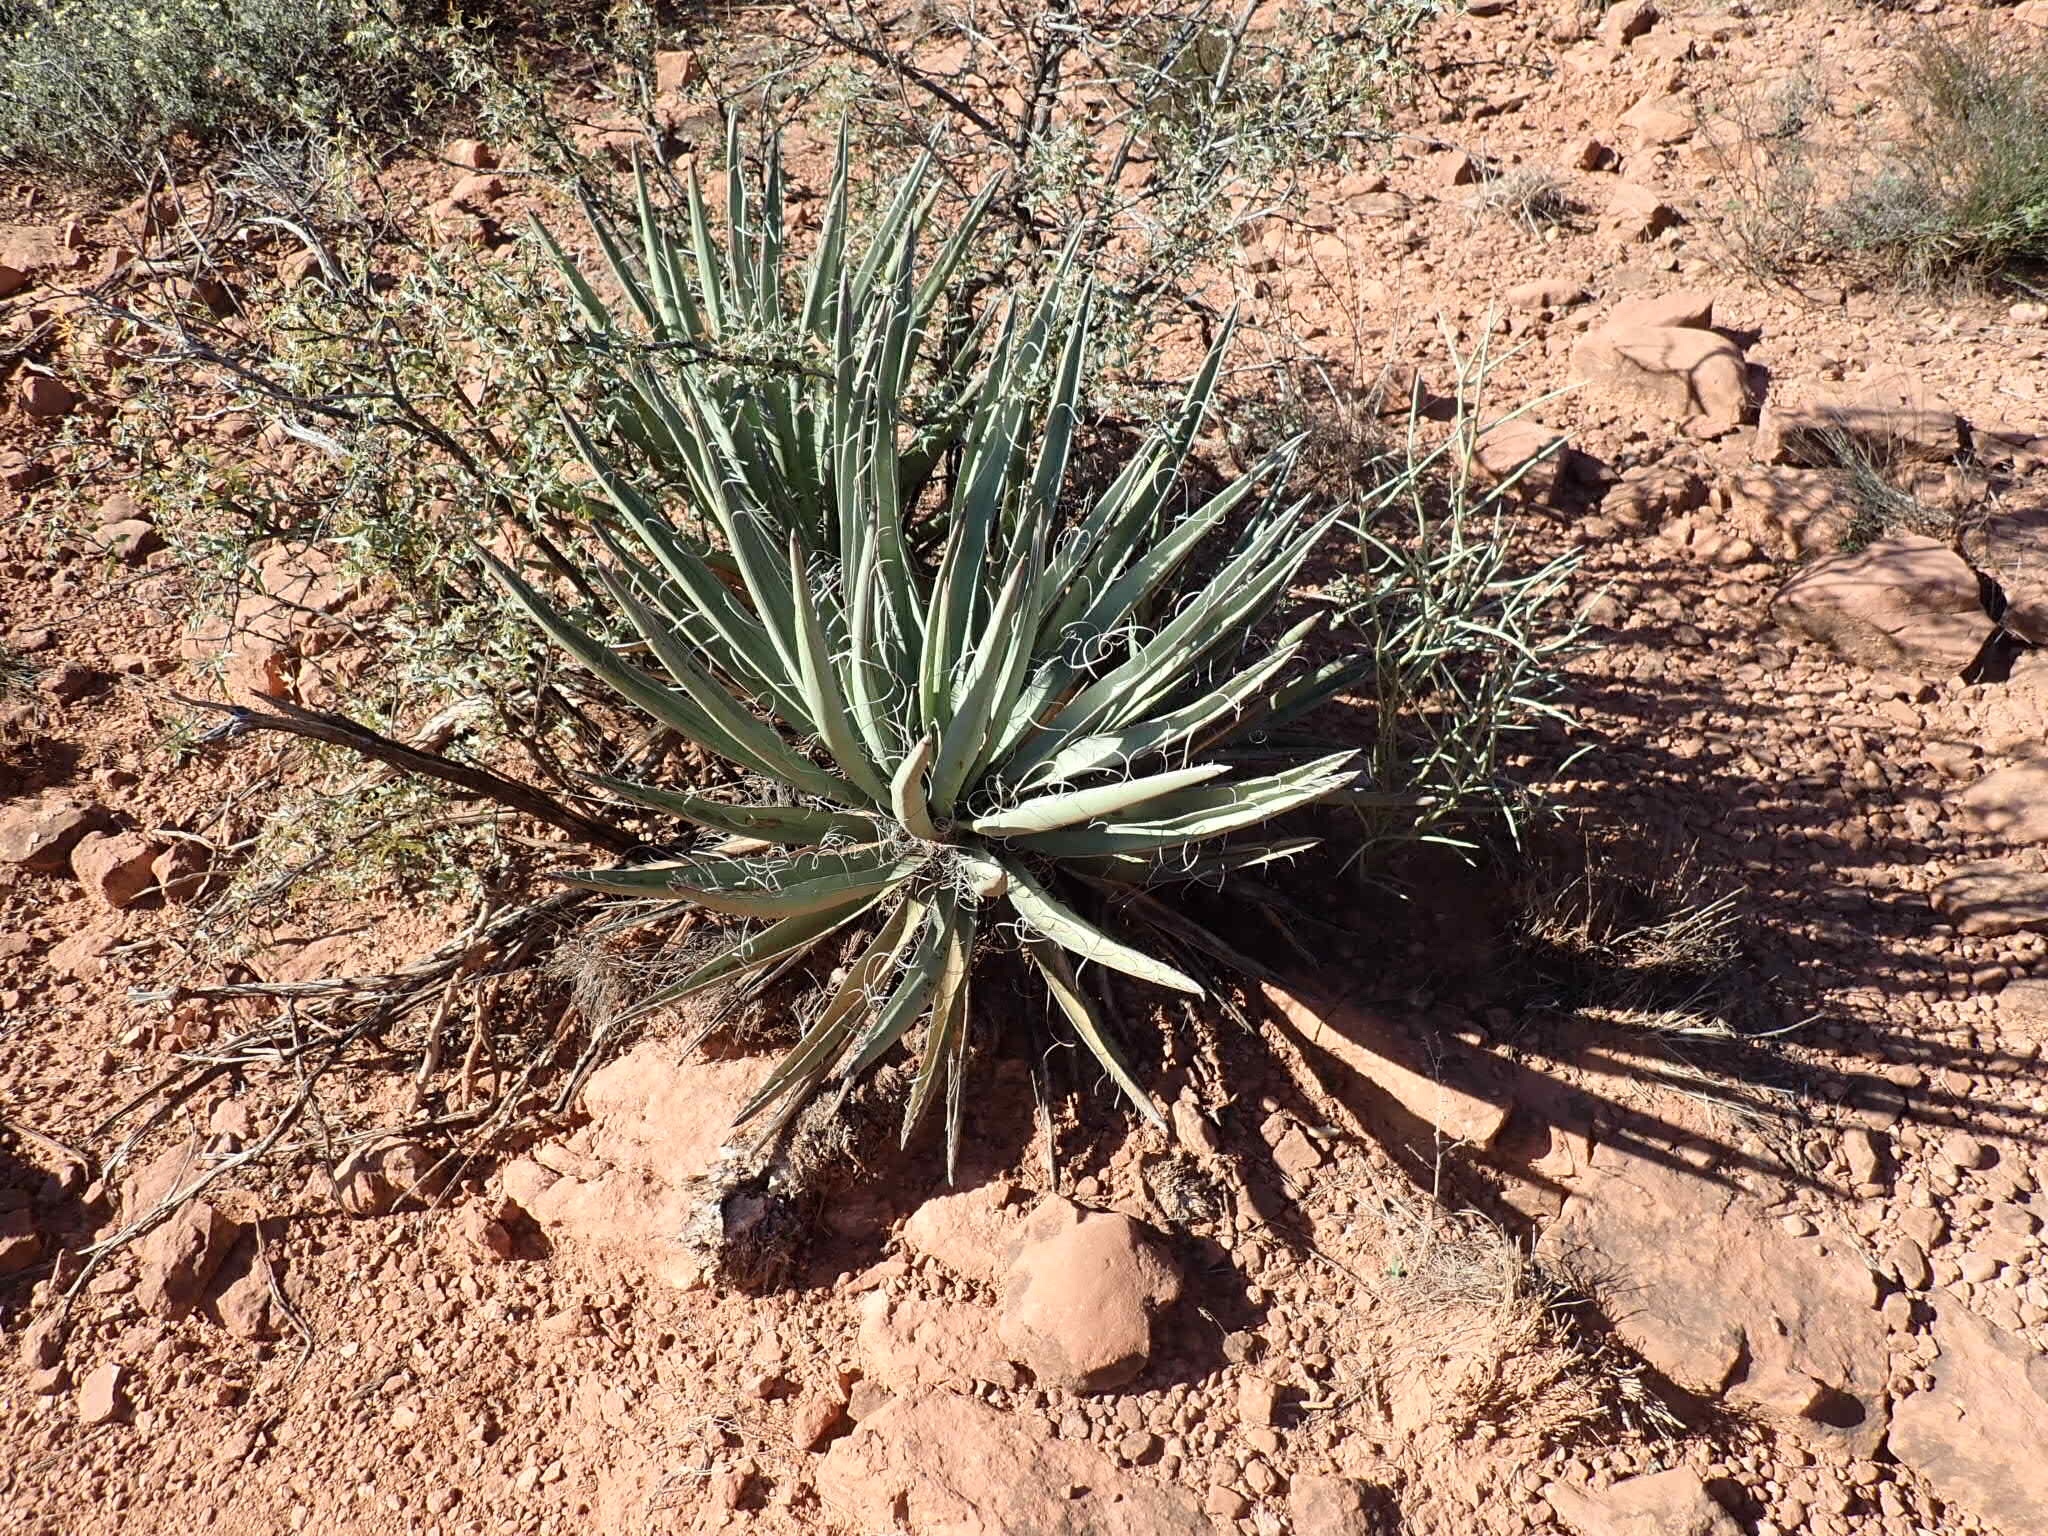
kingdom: Plantae
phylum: Tracheophyta
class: Liliopsida
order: Asparagales
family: Asparagaceae
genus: Yucca
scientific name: Yucca baccata
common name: Banana yucca
